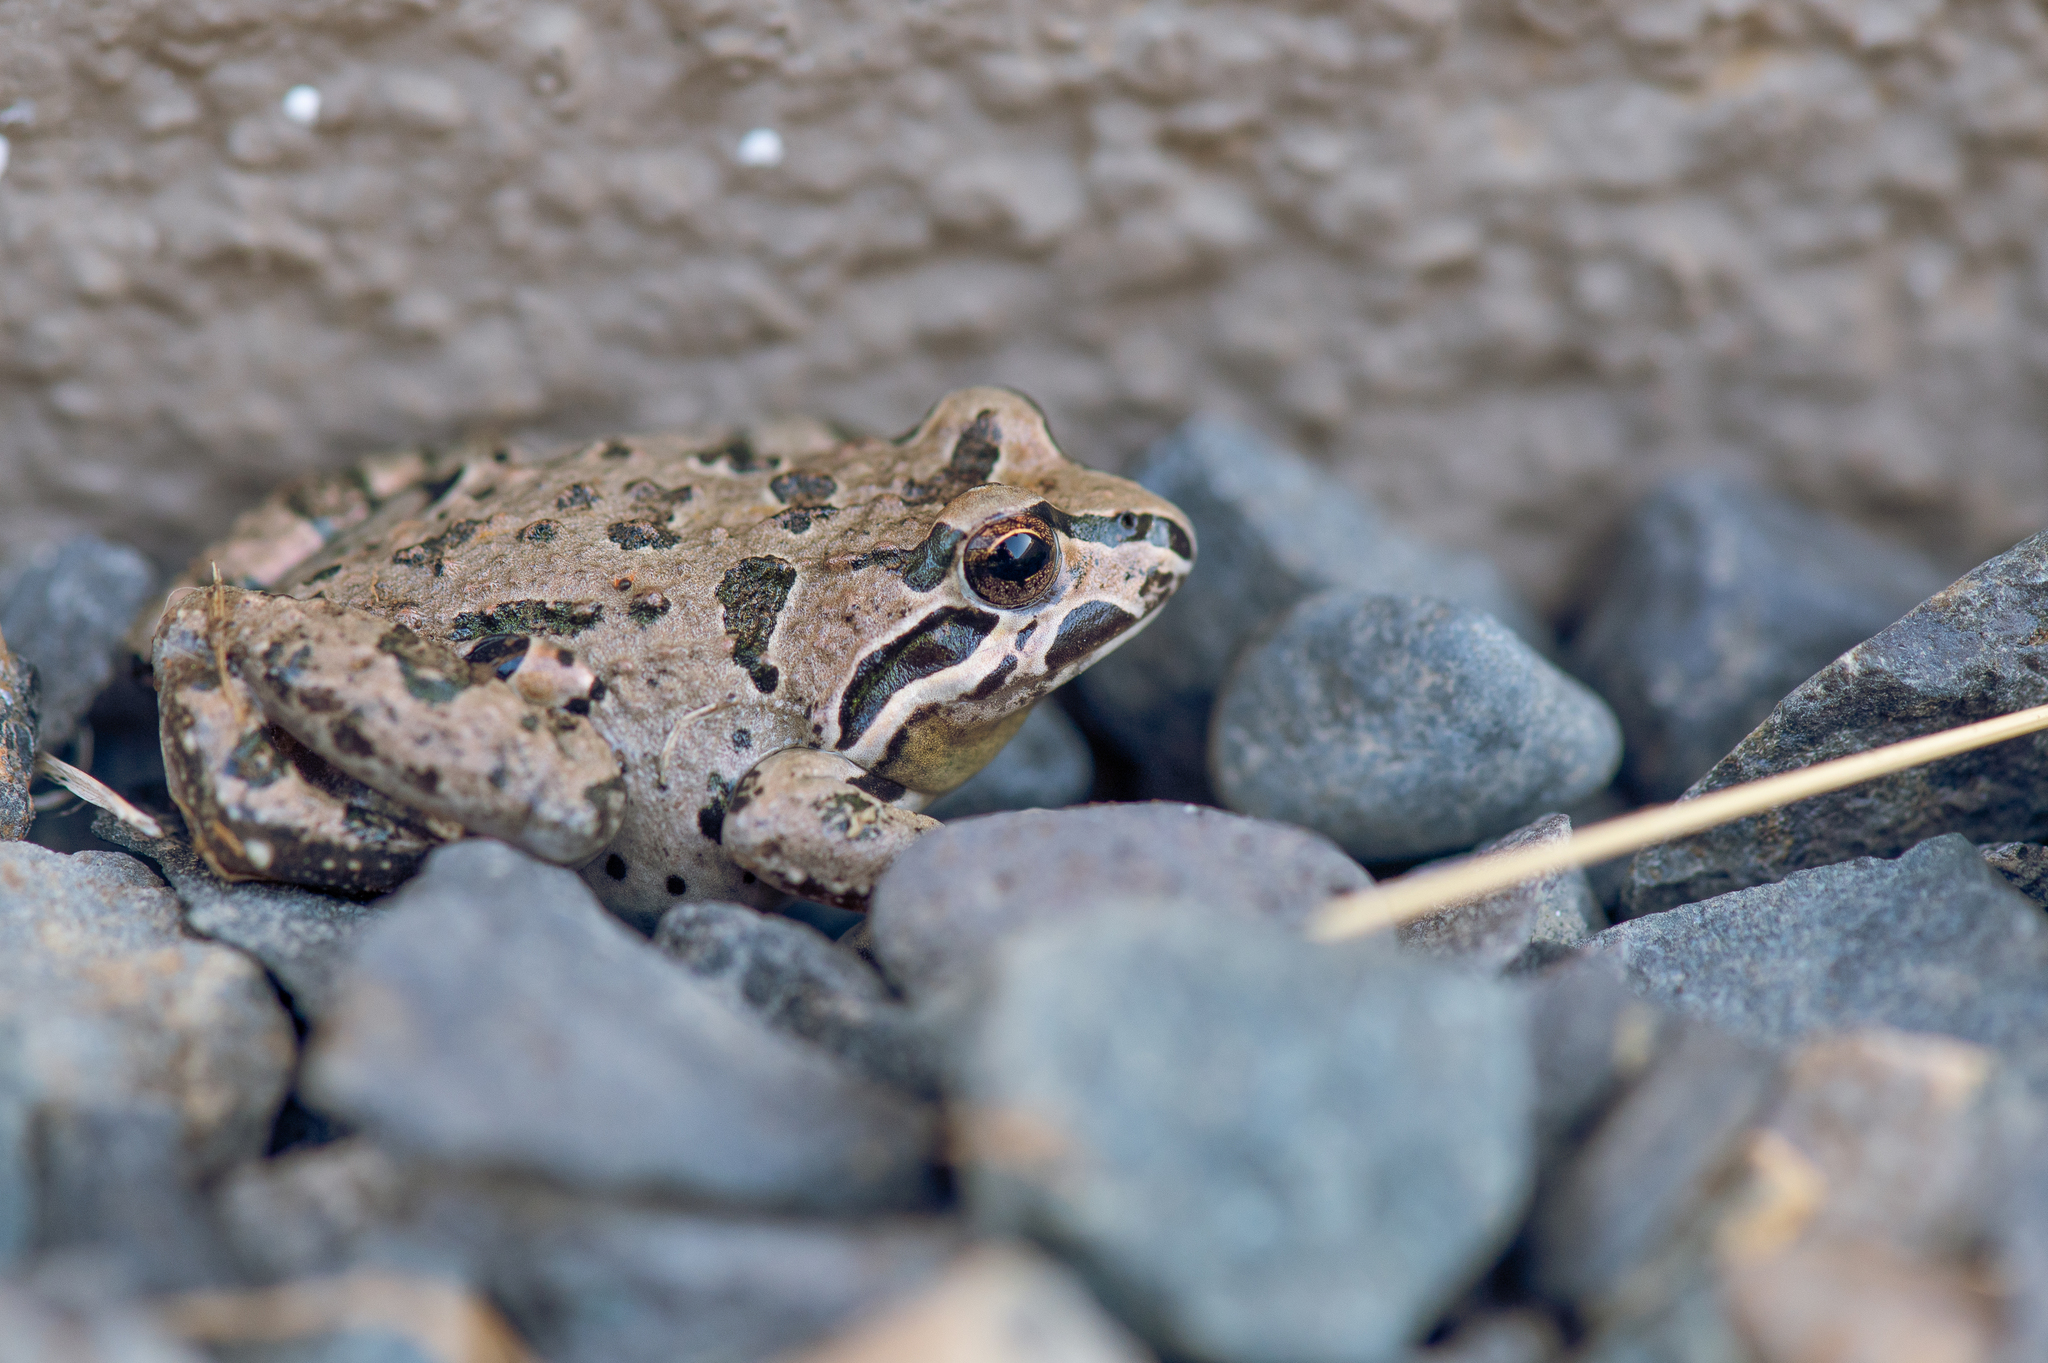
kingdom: Animalia
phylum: Chordata
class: Amphibia
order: Anura
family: Leptodactylidae
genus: Pleurodema
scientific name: Pleurodema thaul
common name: Chile four-eyed frog
